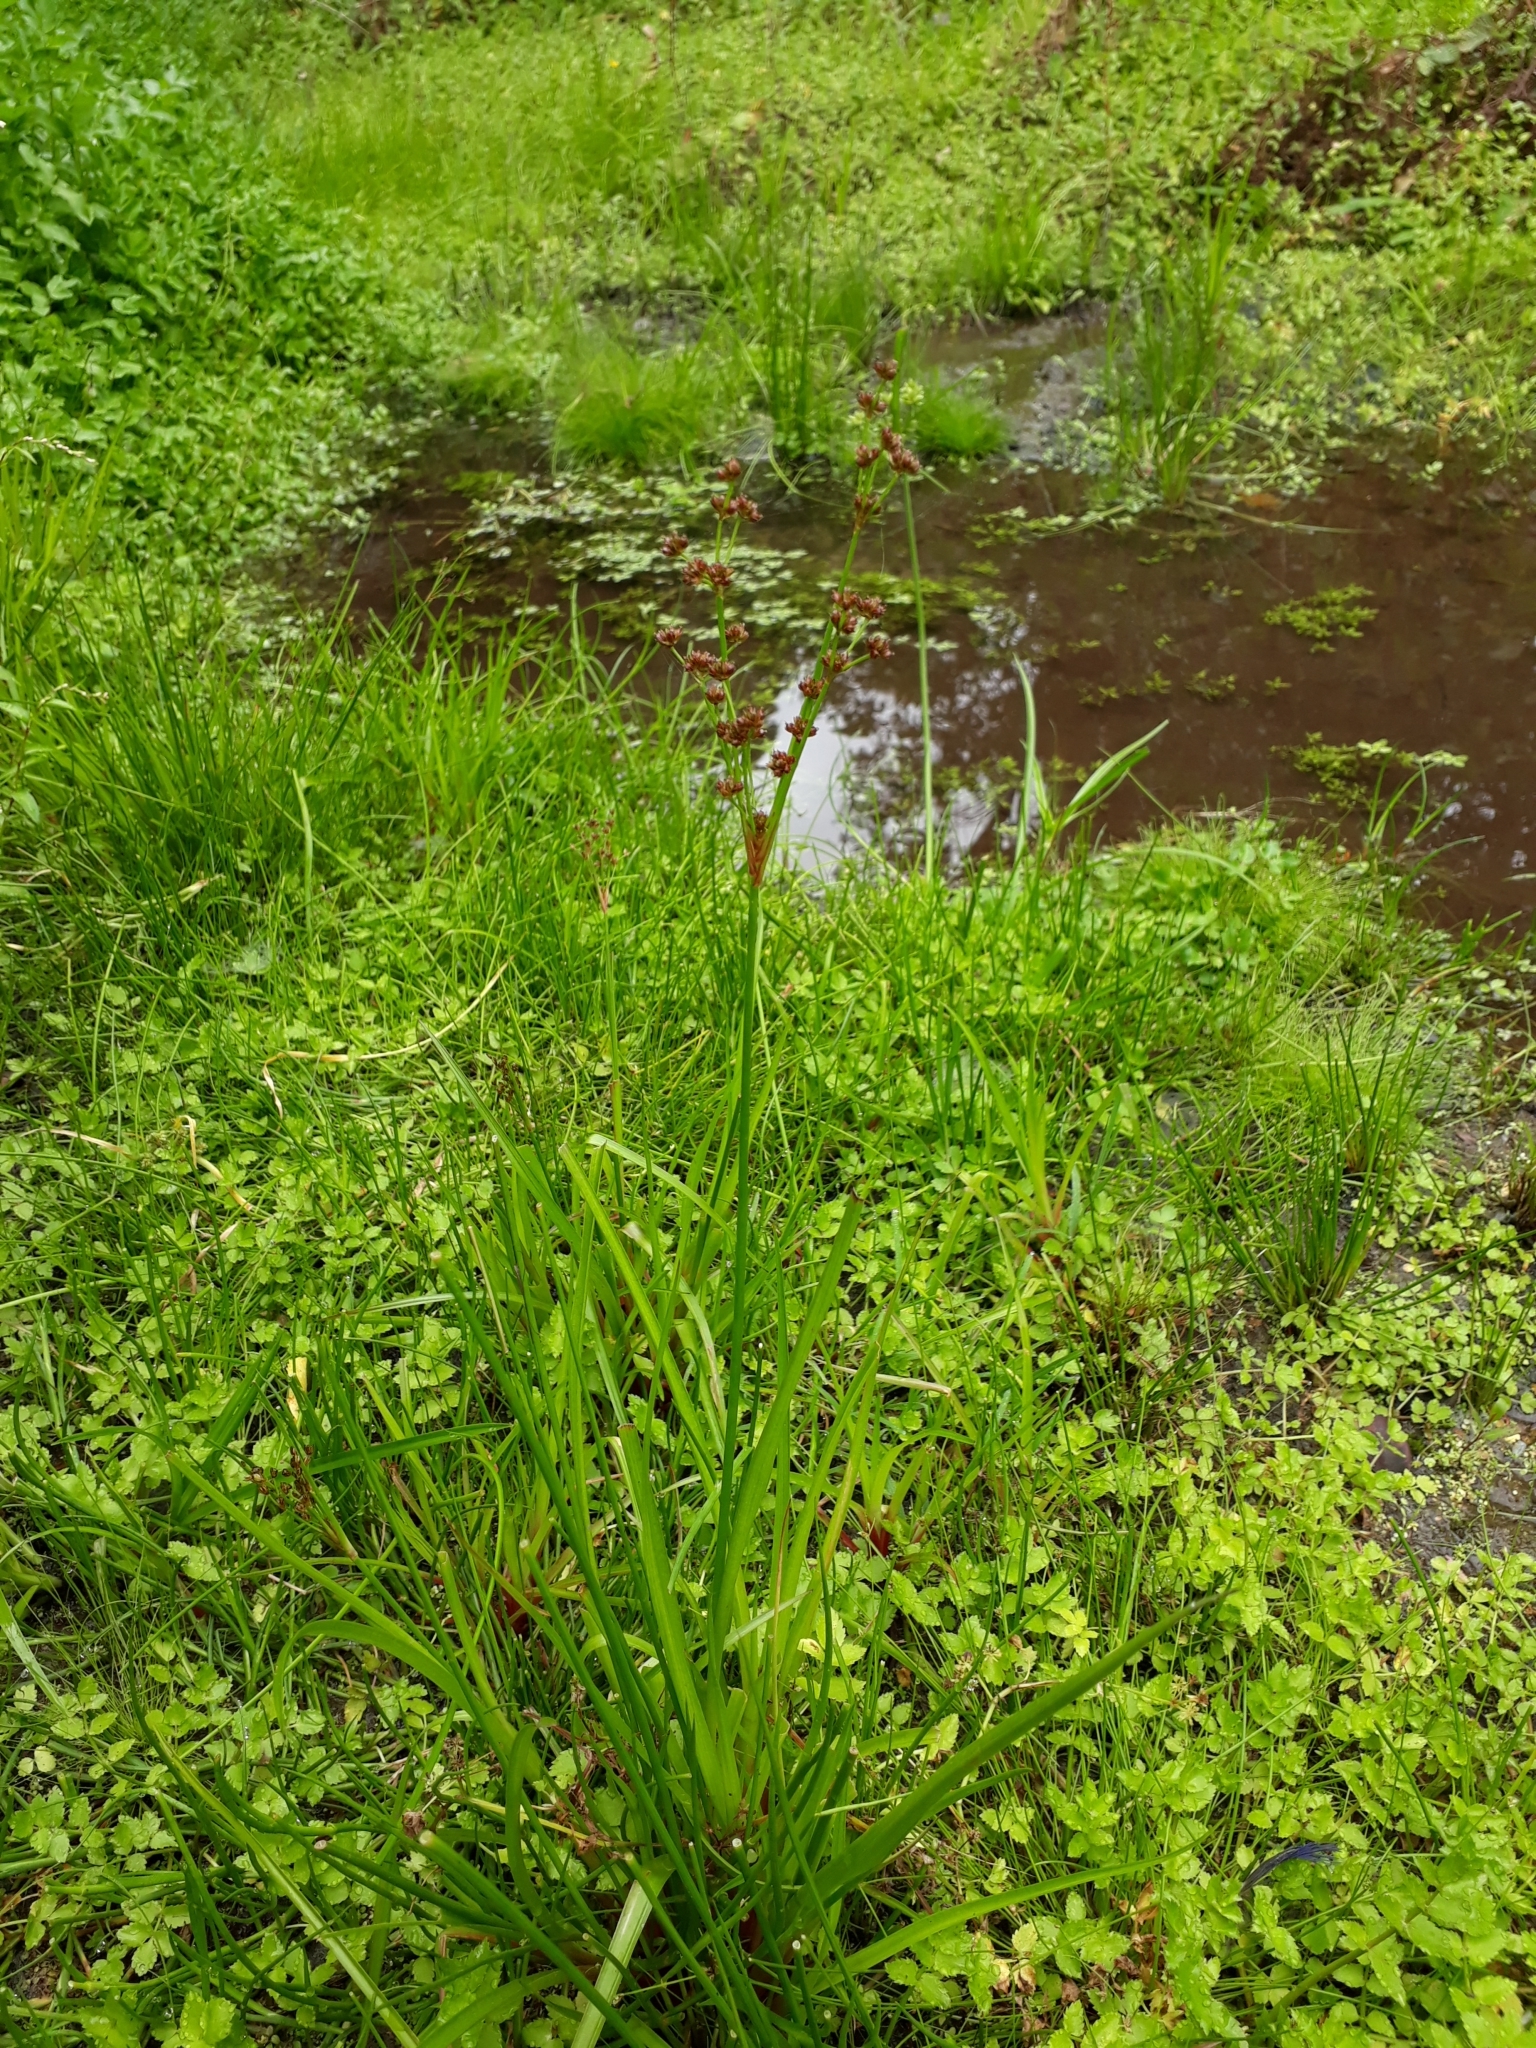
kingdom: Plantae
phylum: Tracheophyta
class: Liliopsida
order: Poales
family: Juncaceae
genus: Juncus
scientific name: Juncus planifolius
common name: Broadleaf rush
